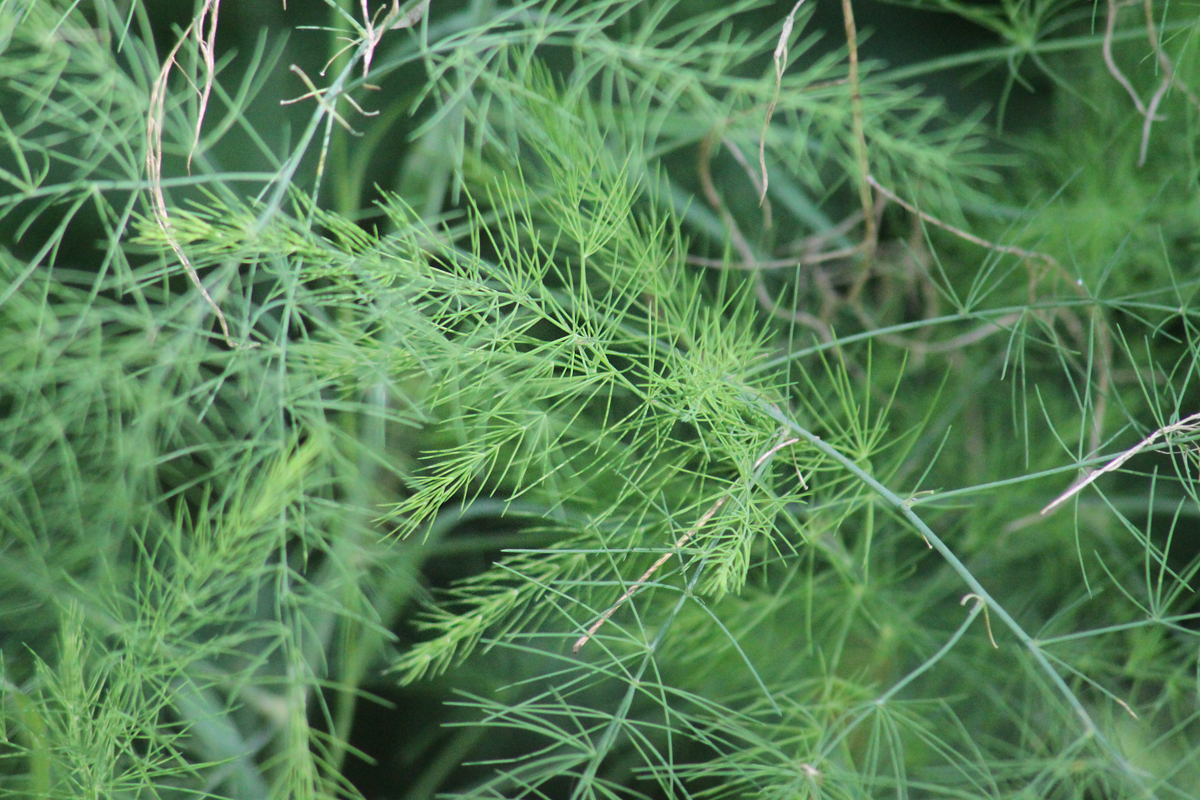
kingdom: Plantae
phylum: Tracheophyta
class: Liliopsida
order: Asparagales
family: Asparagaceae
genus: Asparagus
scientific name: Asparagus officinalis
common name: Garden asparagus
